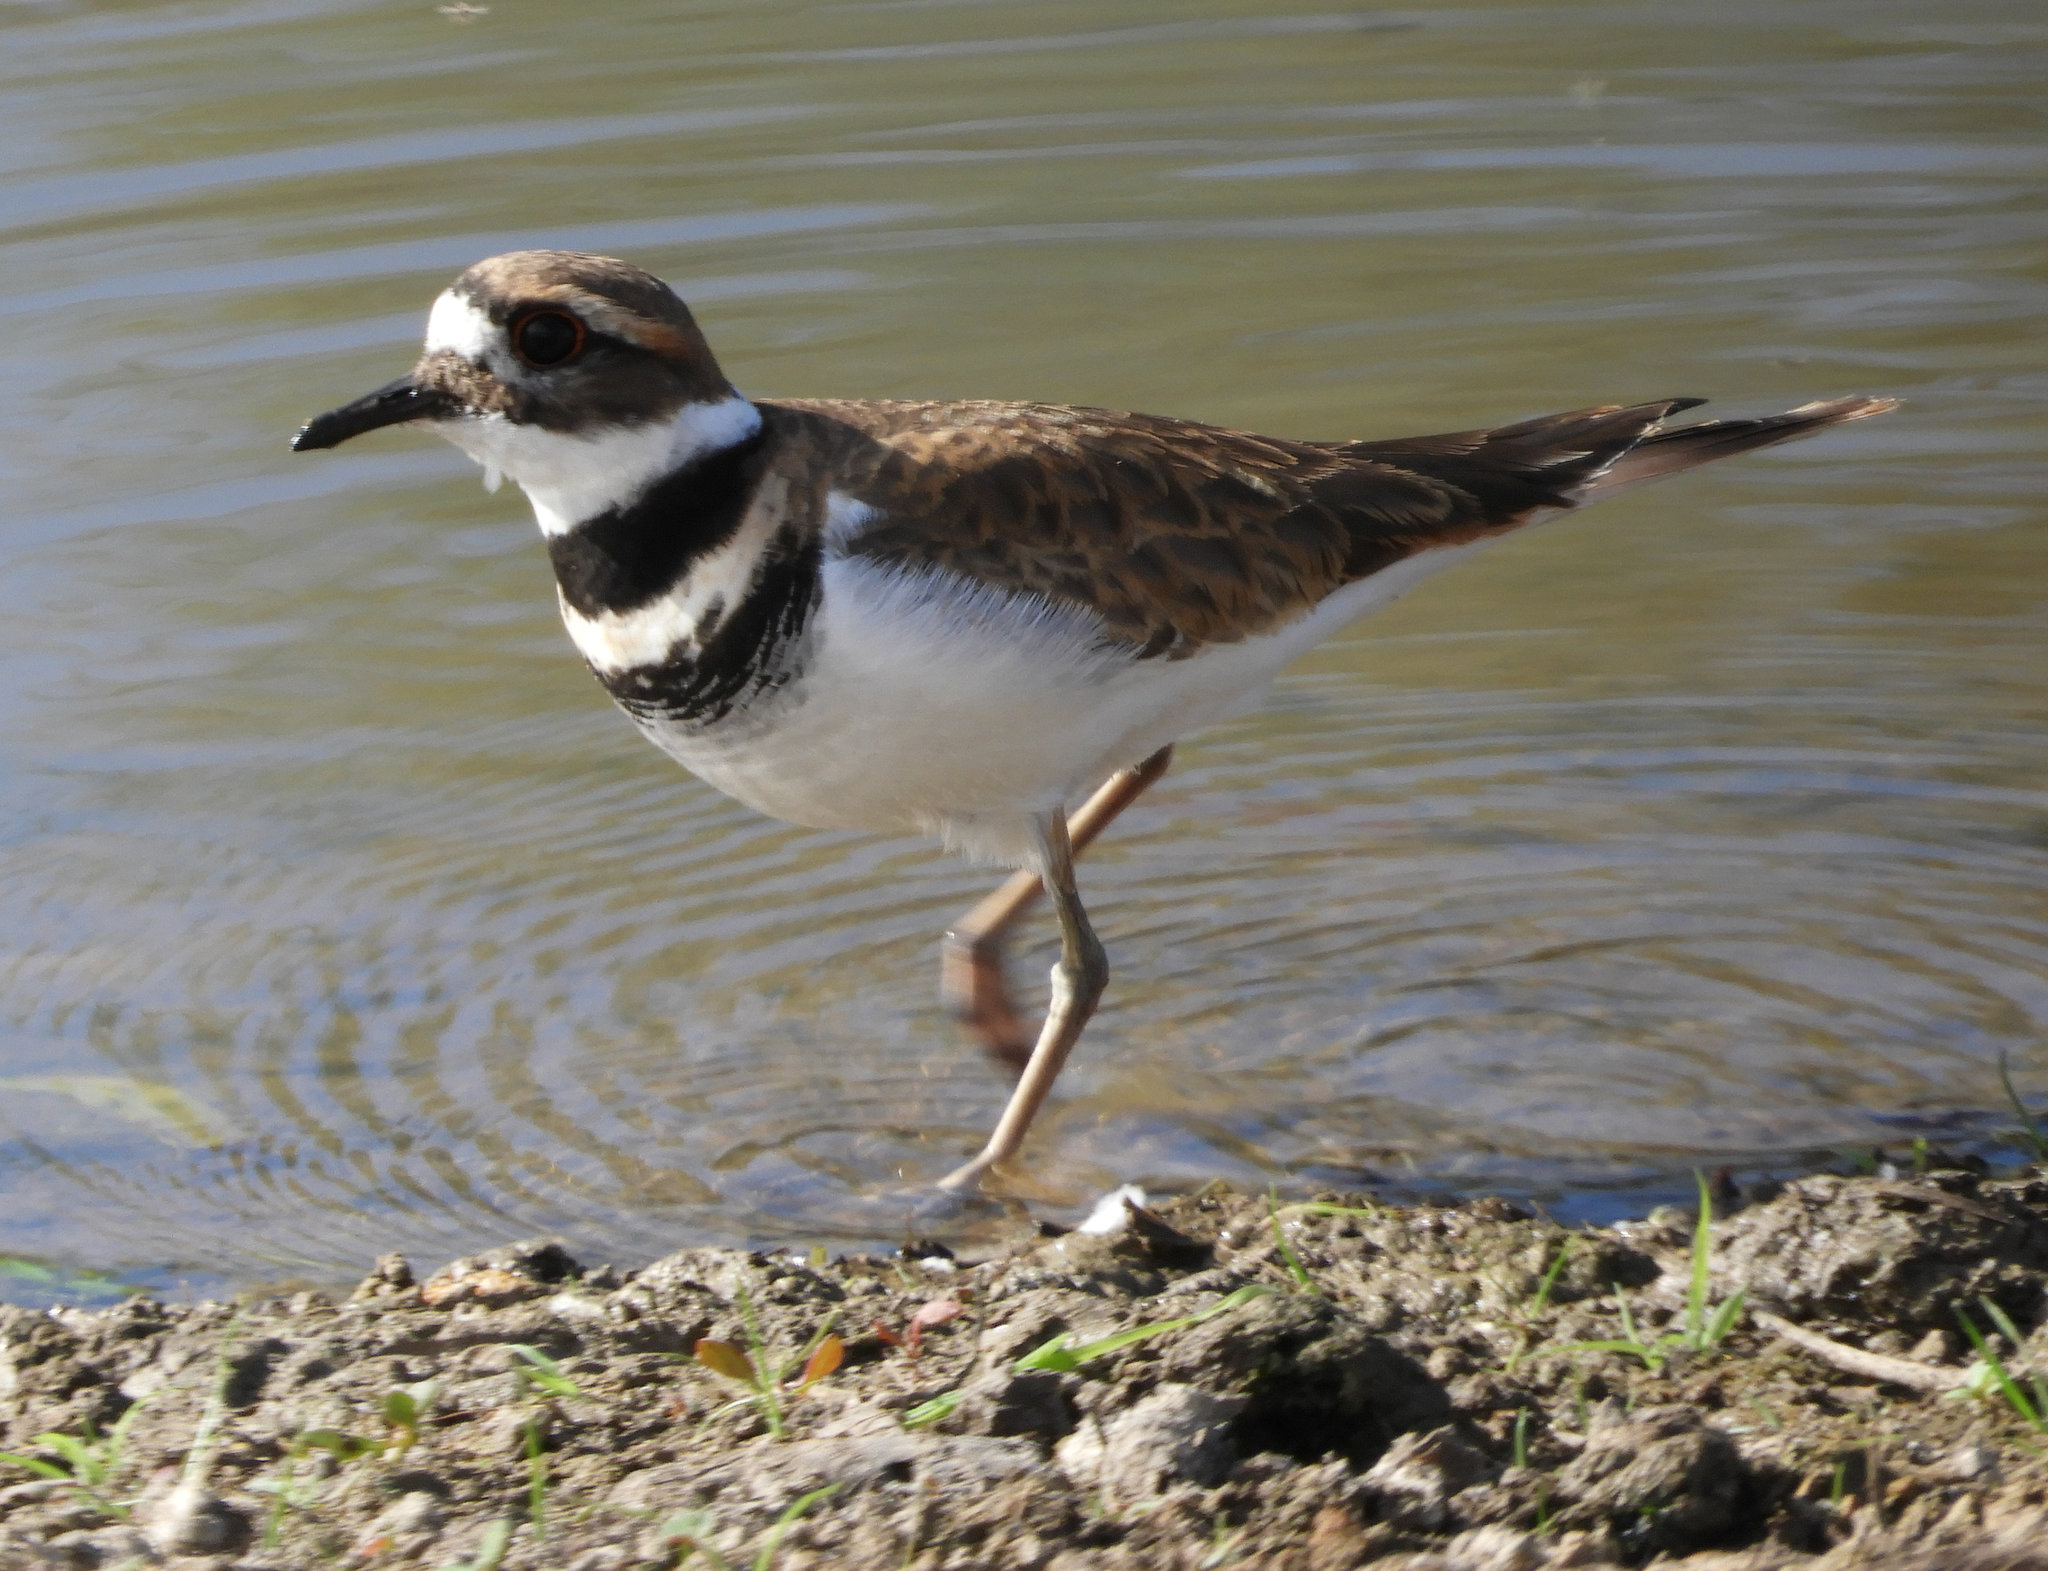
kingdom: Animalia
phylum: Chordata
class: Aves
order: Charadriiformes
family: Charadriidae
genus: Charadrius
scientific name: Charadrius vociferus
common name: Killdeer
